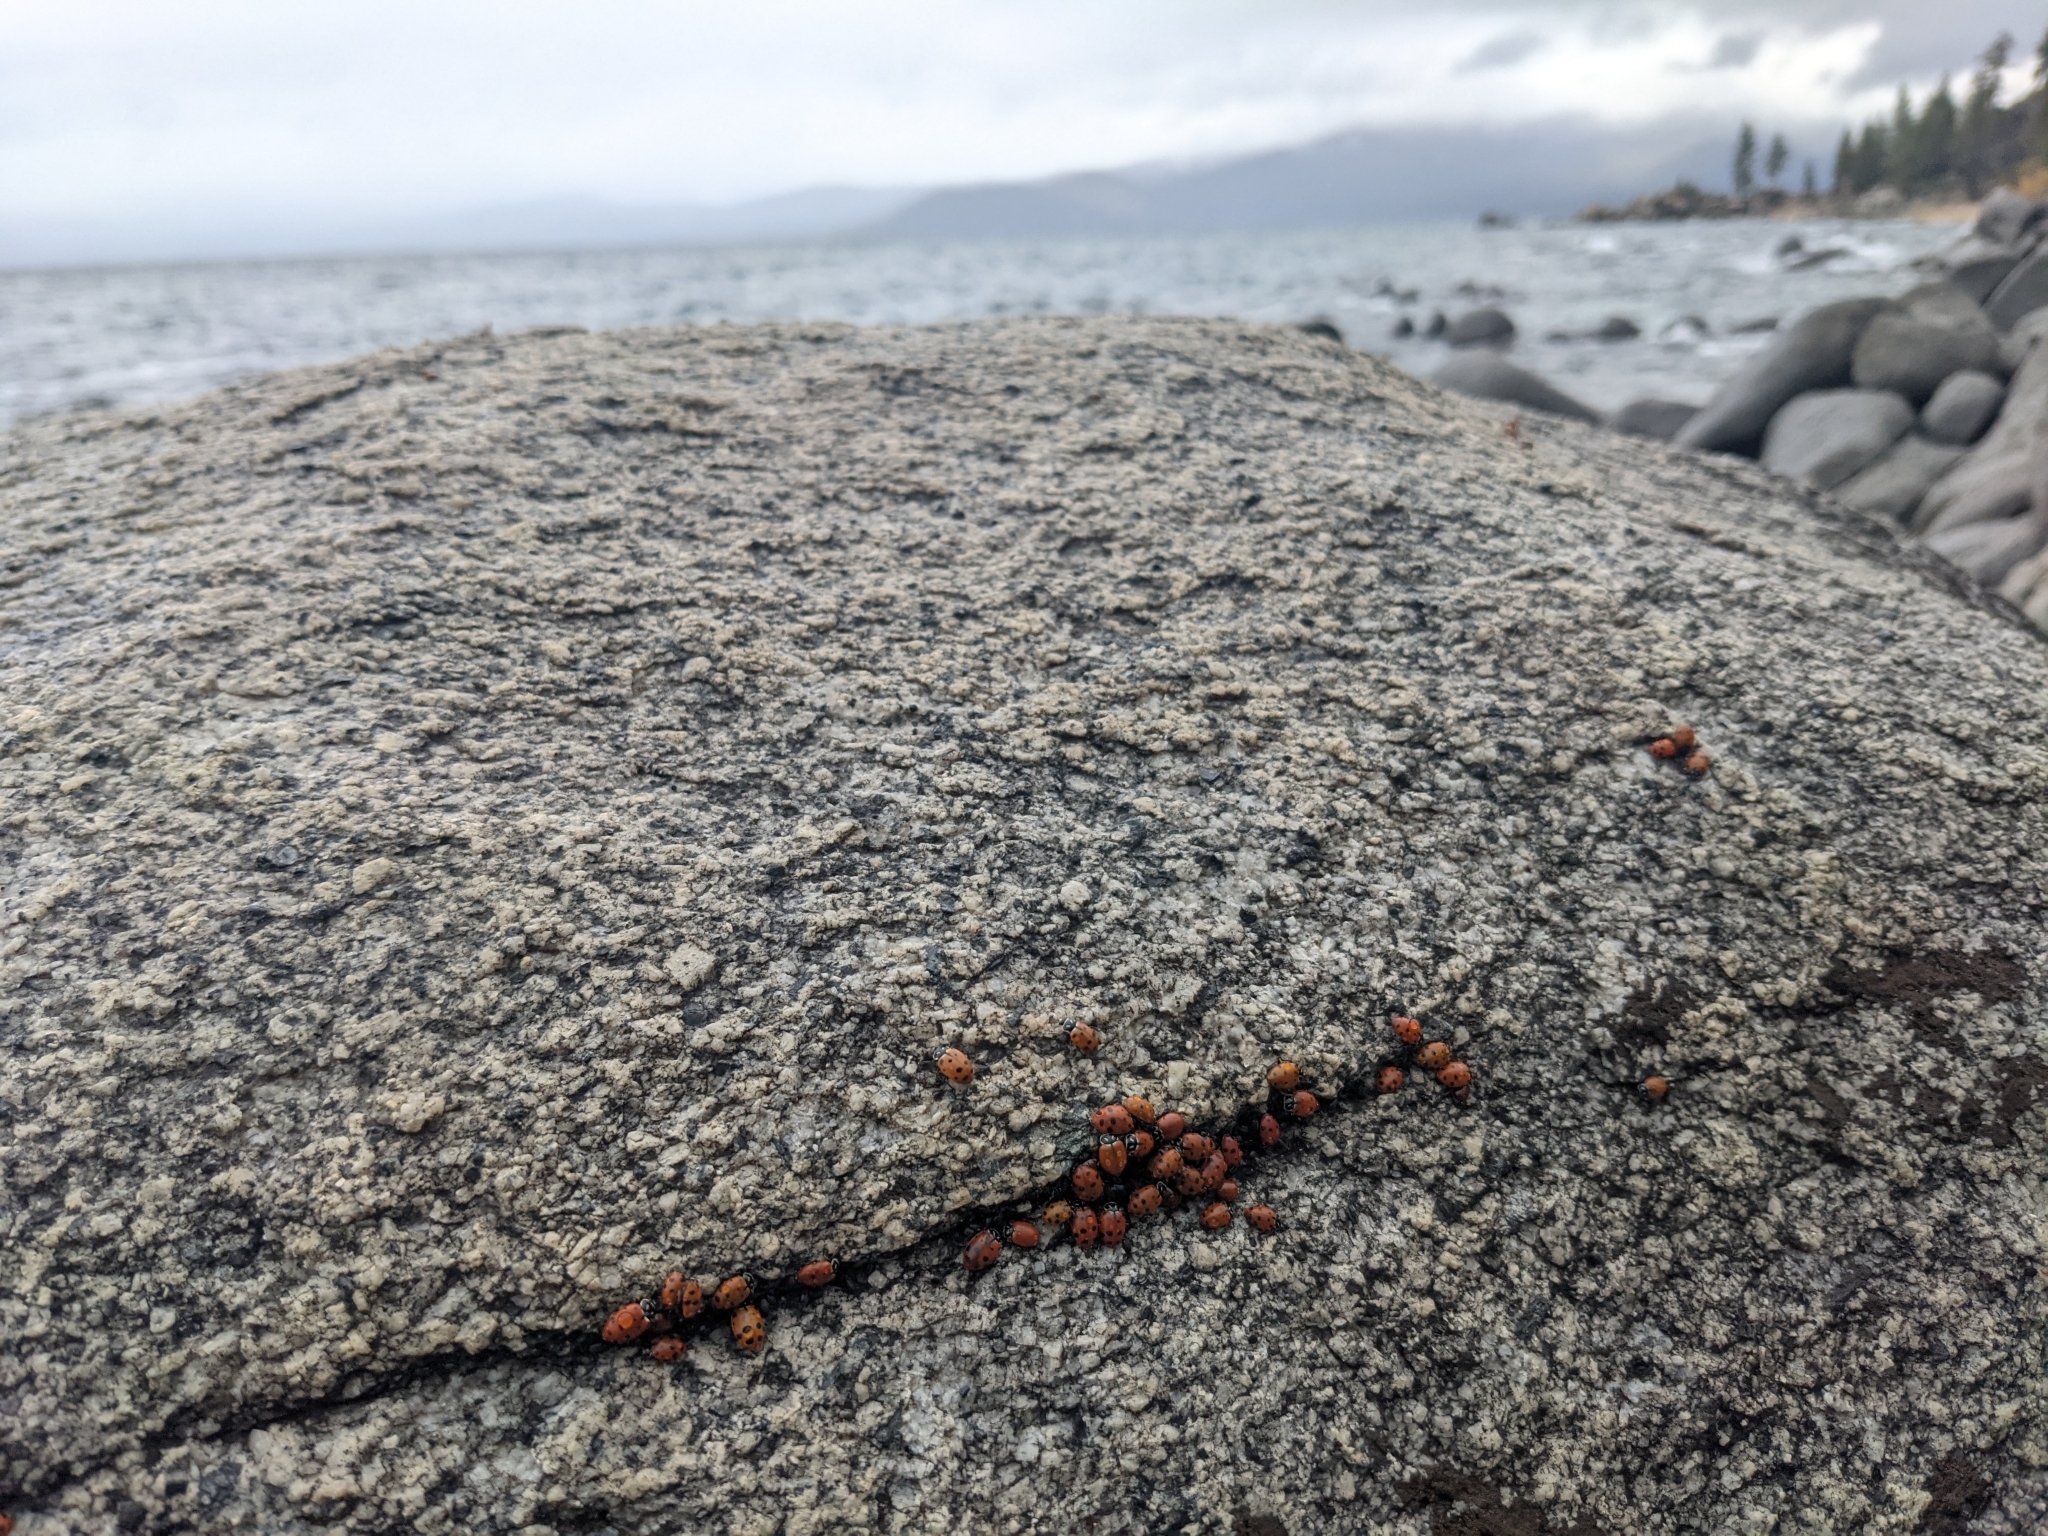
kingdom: Animalia
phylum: Arthropoda
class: Insecta
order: Coleoptera
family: Coccinellidae
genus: Hippodamia
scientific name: Hippodamia convergens
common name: Convergent lady beetle
